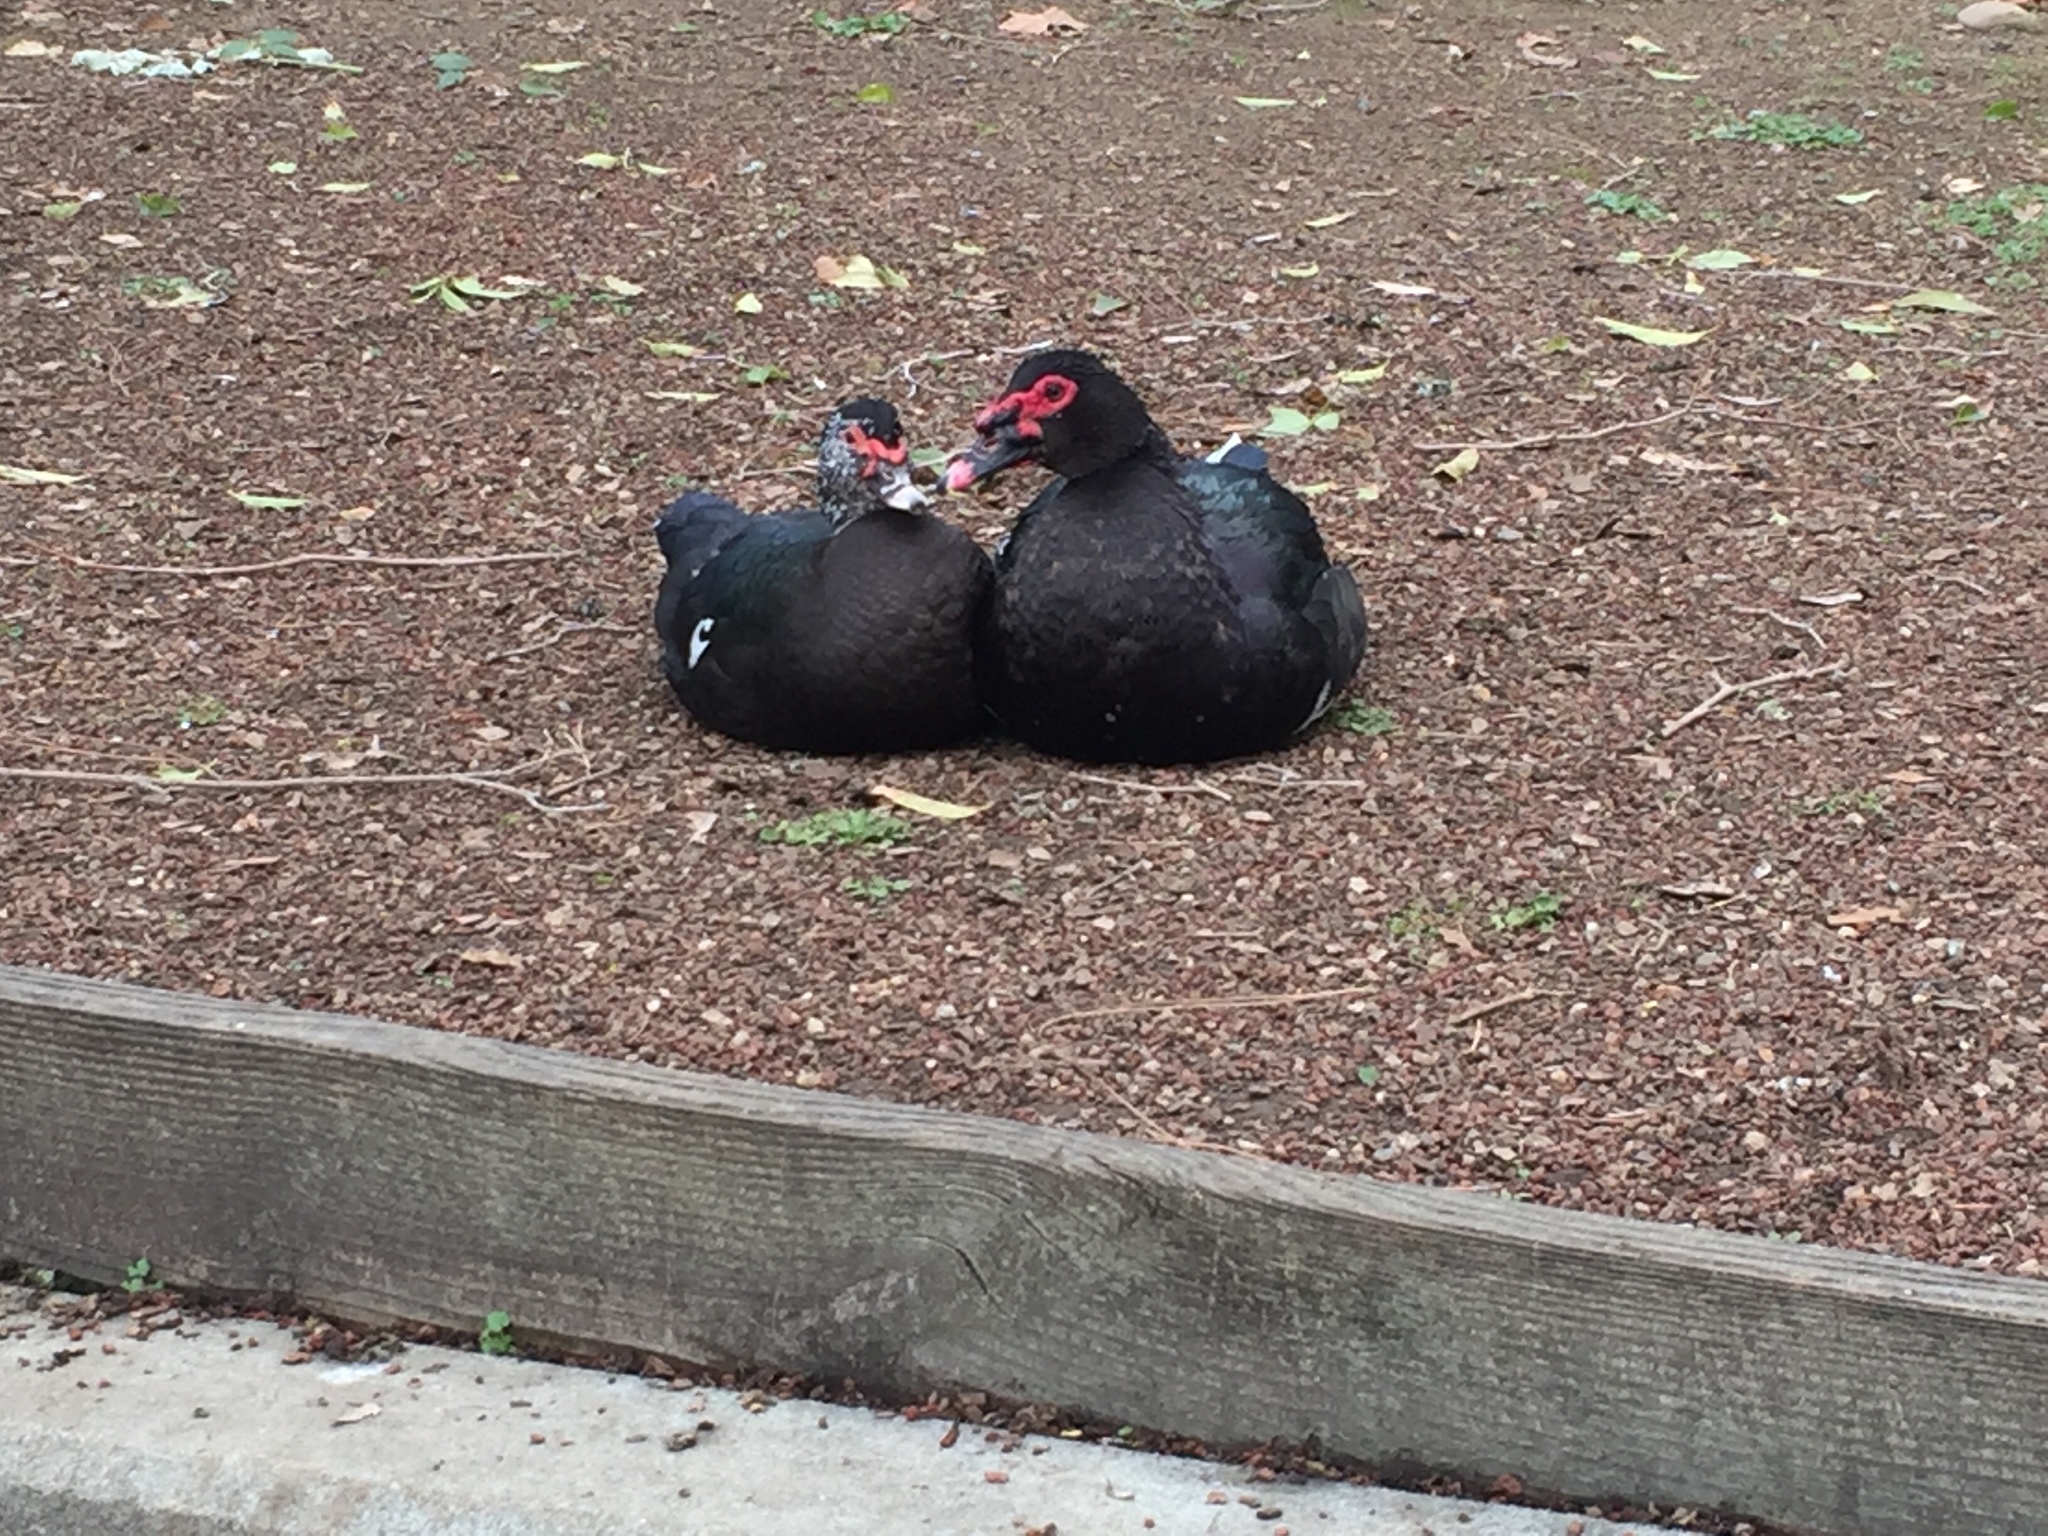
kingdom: Animalia
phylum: Chordata
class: Aves
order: Anseriformes
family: Anatidae
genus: Cairina
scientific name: Cairina moschata
